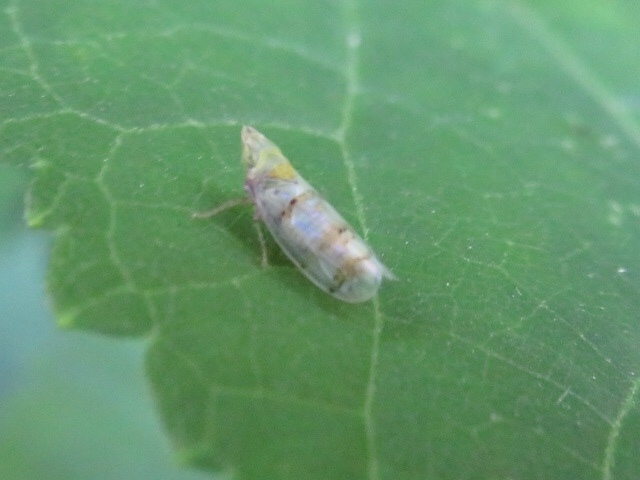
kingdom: Animalia
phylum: Arthropoda
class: Insecta
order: Hemiptera
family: Cicadellidae
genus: Japananus
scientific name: Japananus hyalinus
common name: The japanese maple leafhopper
